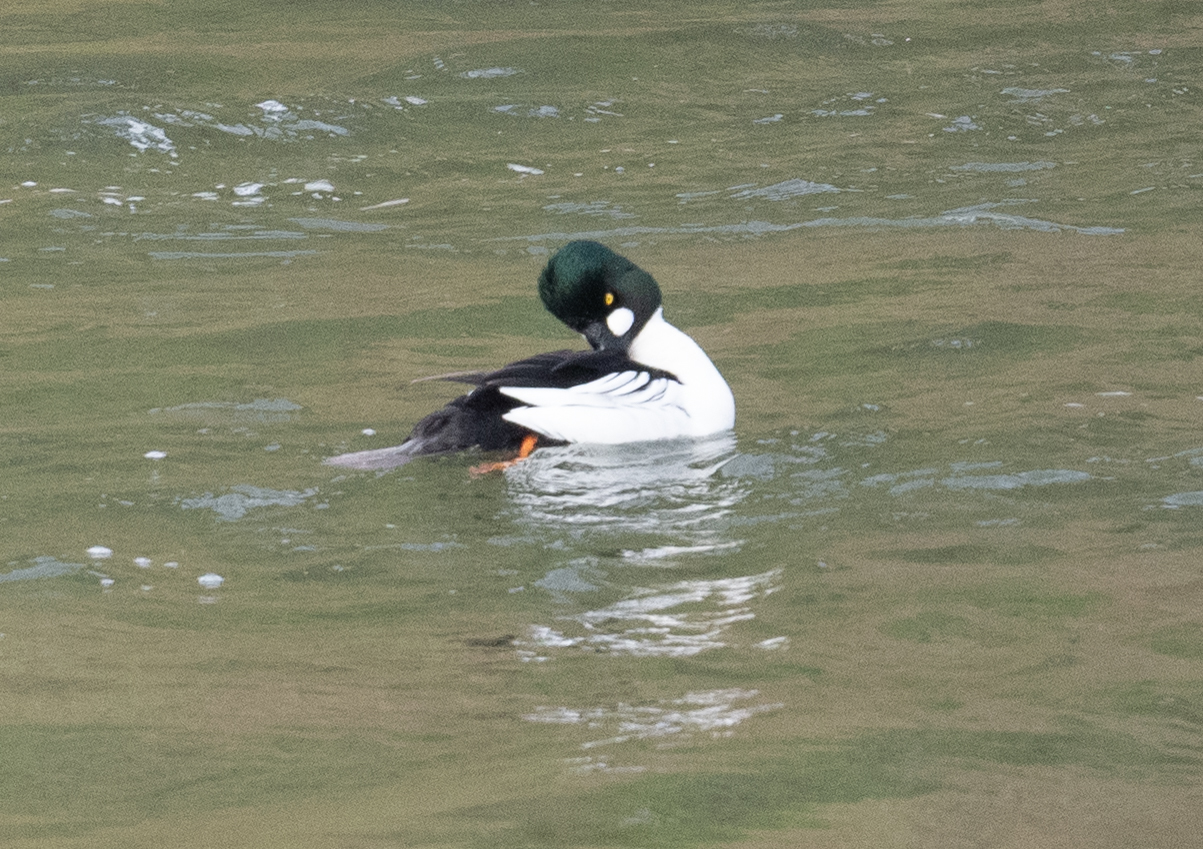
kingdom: Animalia
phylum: Chordata
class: Aves
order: Anseriformes
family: Anatidae
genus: Bucephala
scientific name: Bucephala clangula
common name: Common goldeneye
